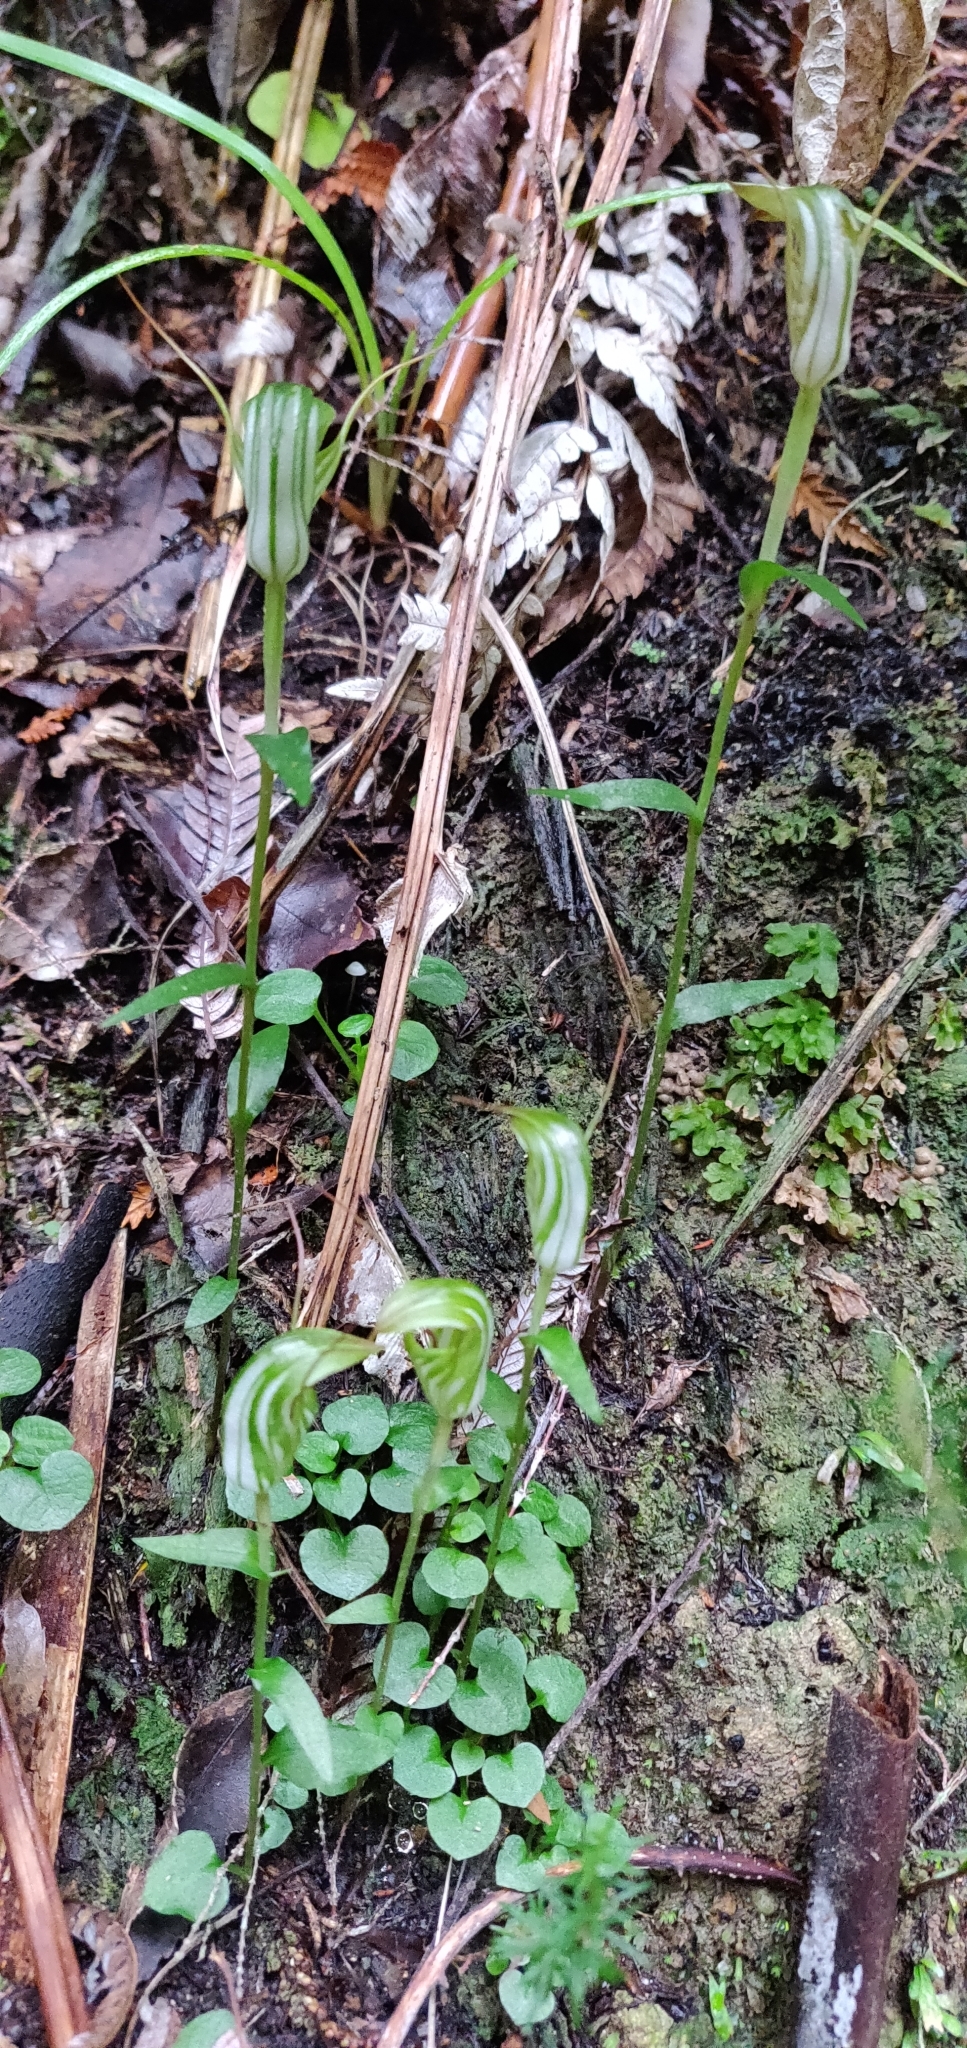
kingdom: Plantae
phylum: Tracheophyta
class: Liliopsida
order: Asparagales
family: Orchidaceae
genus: Pterostylis
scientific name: Pterostylis alobula
